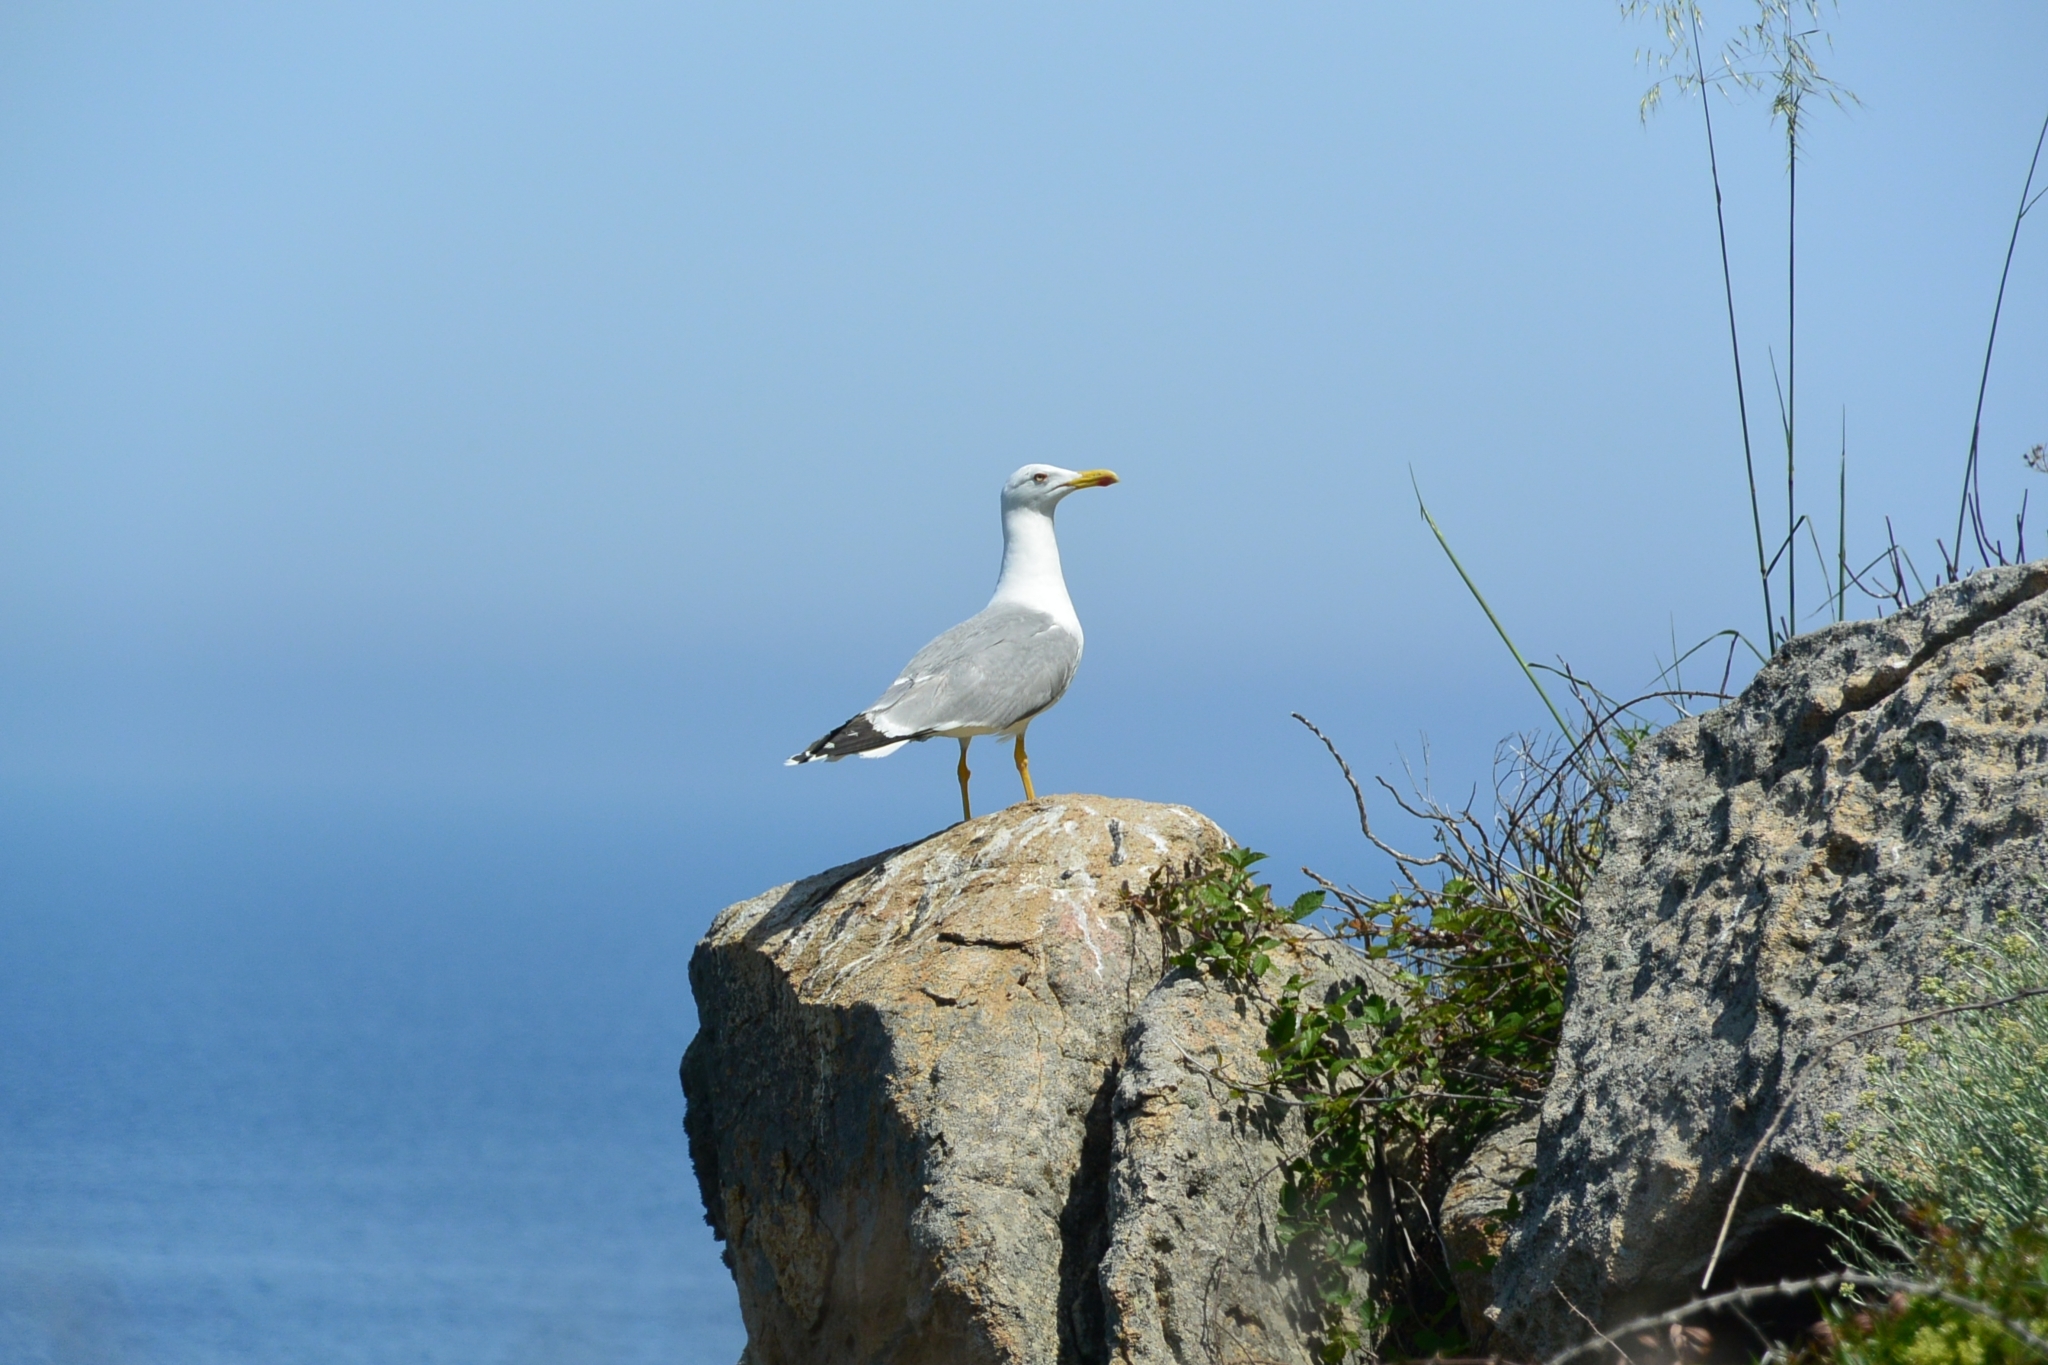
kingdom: Animalia
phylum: Chordata
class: Aves
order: Charadriiformes
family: Laridae
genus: Larus
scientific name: Larus michahellis
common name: Yellow-legged gull
